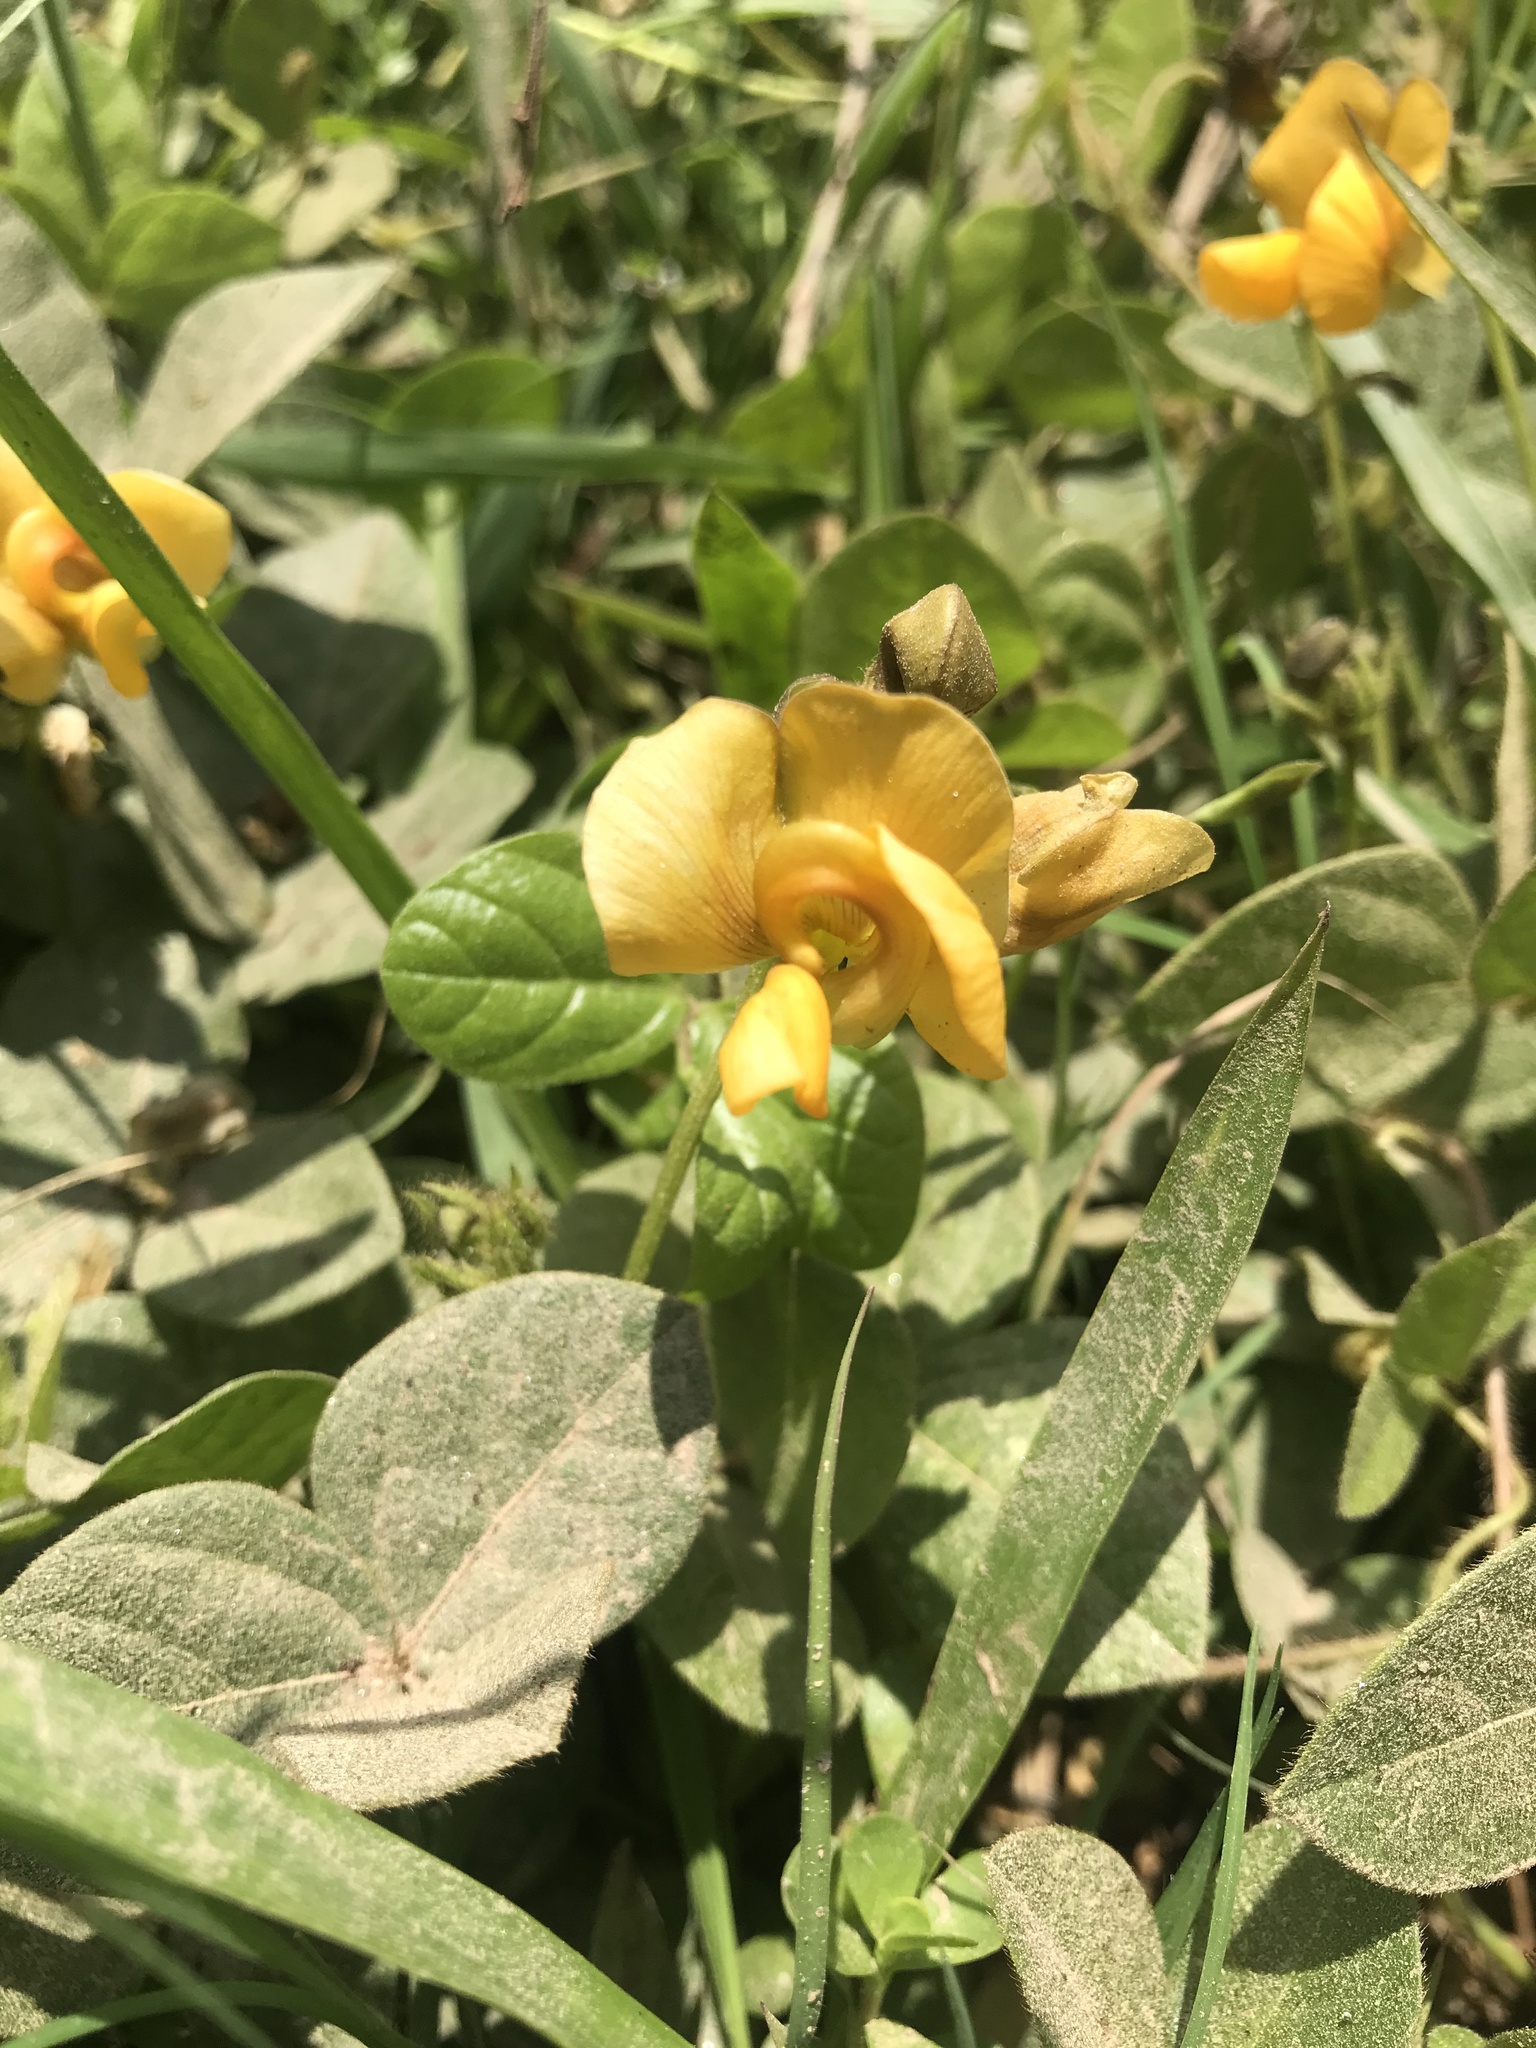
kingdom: Plantae
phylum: Tracheophyta
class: Magnoliopsida
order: Fabales
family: Fabaceae
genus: Vigna
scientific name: Vigna longifolia
